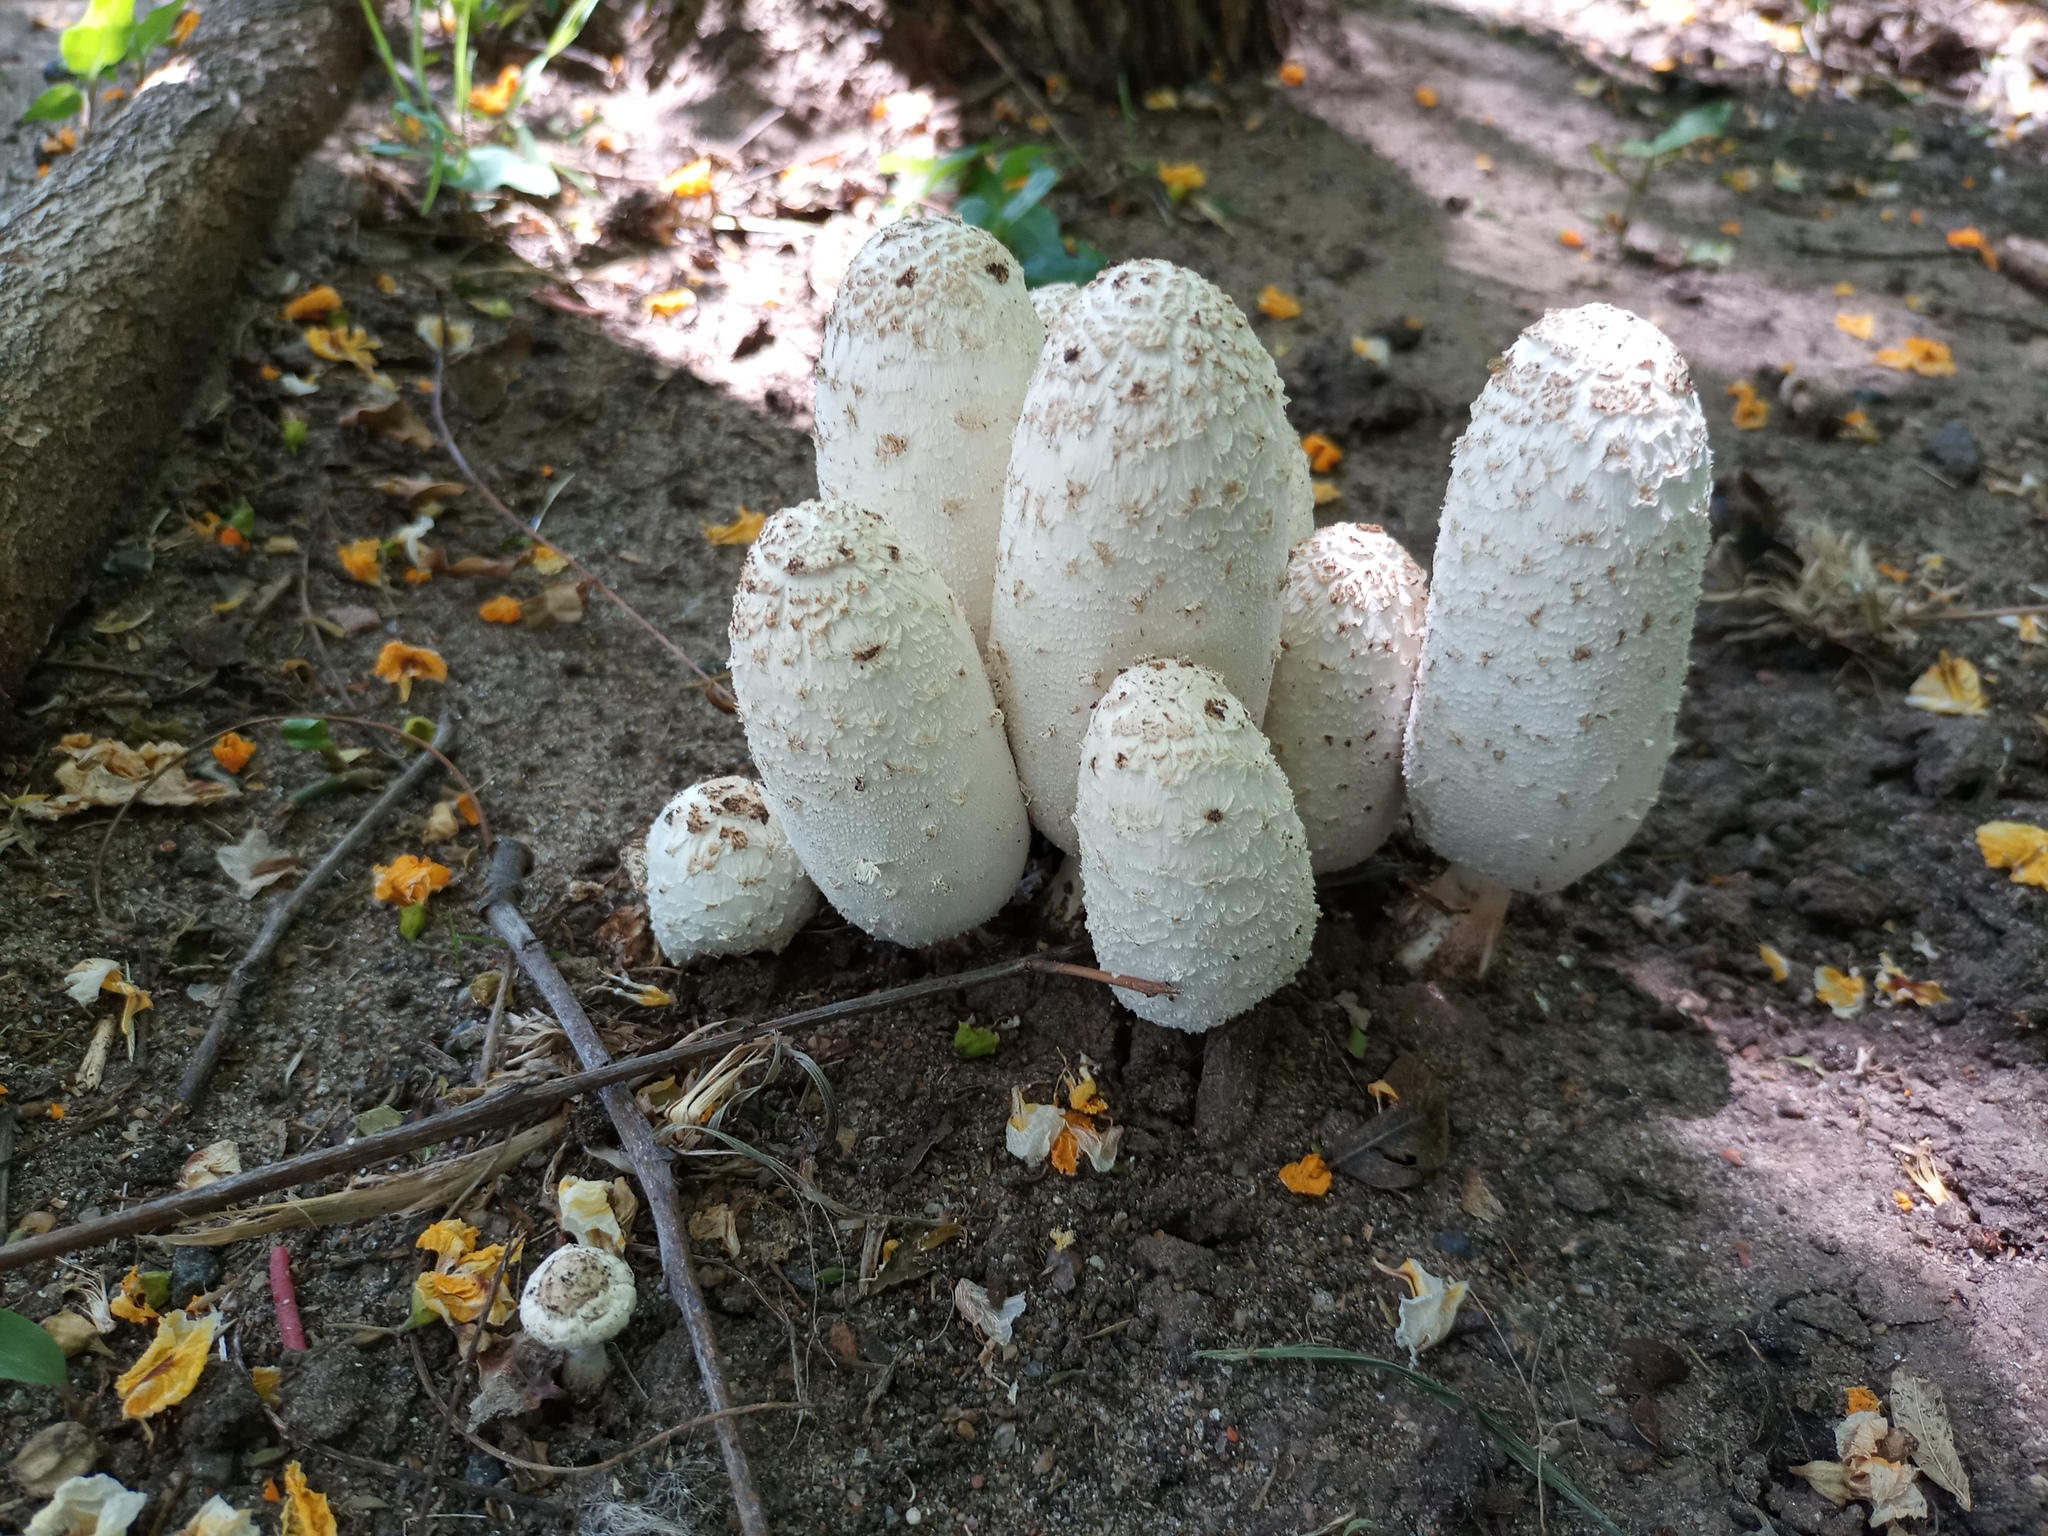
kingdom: Fungi
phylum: Basidiomycota
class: Agaricomycetes
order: Agaricales
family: Agaricaceae
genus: Coprinus
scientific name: Coprinus comatus
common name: Lawyer's wig
